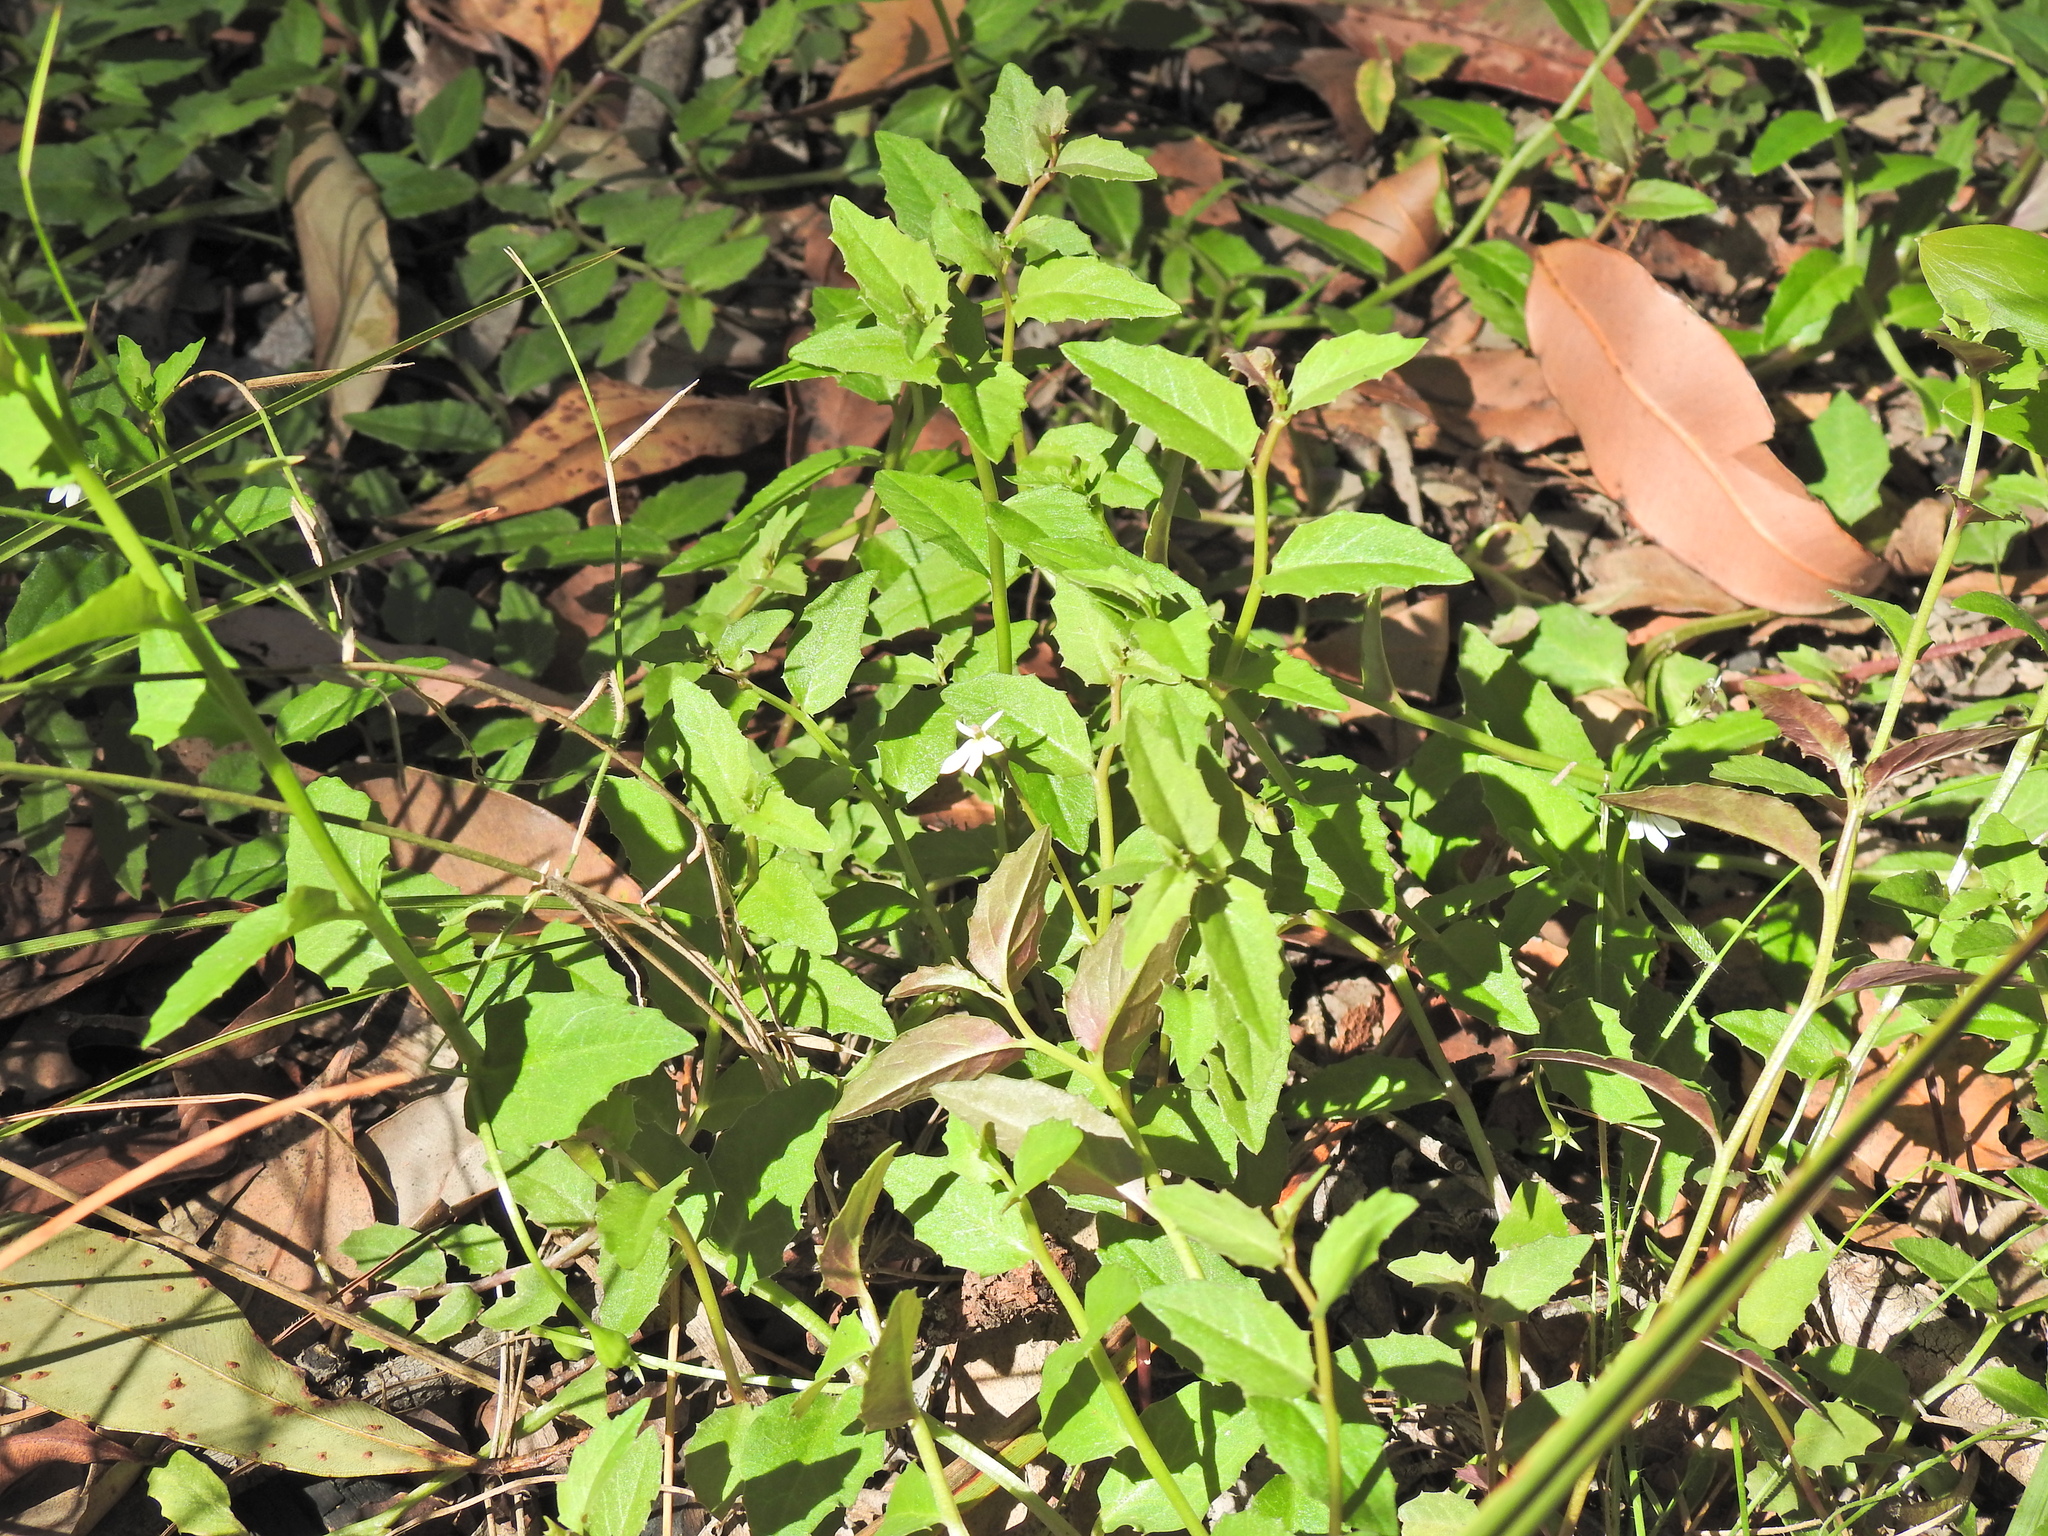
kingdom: Plantae
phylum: Tracheophyta
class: Magnoliopsida
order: Asterales
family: Campanulaceae
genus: Lobelia
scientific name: Lobelia purpurascens
